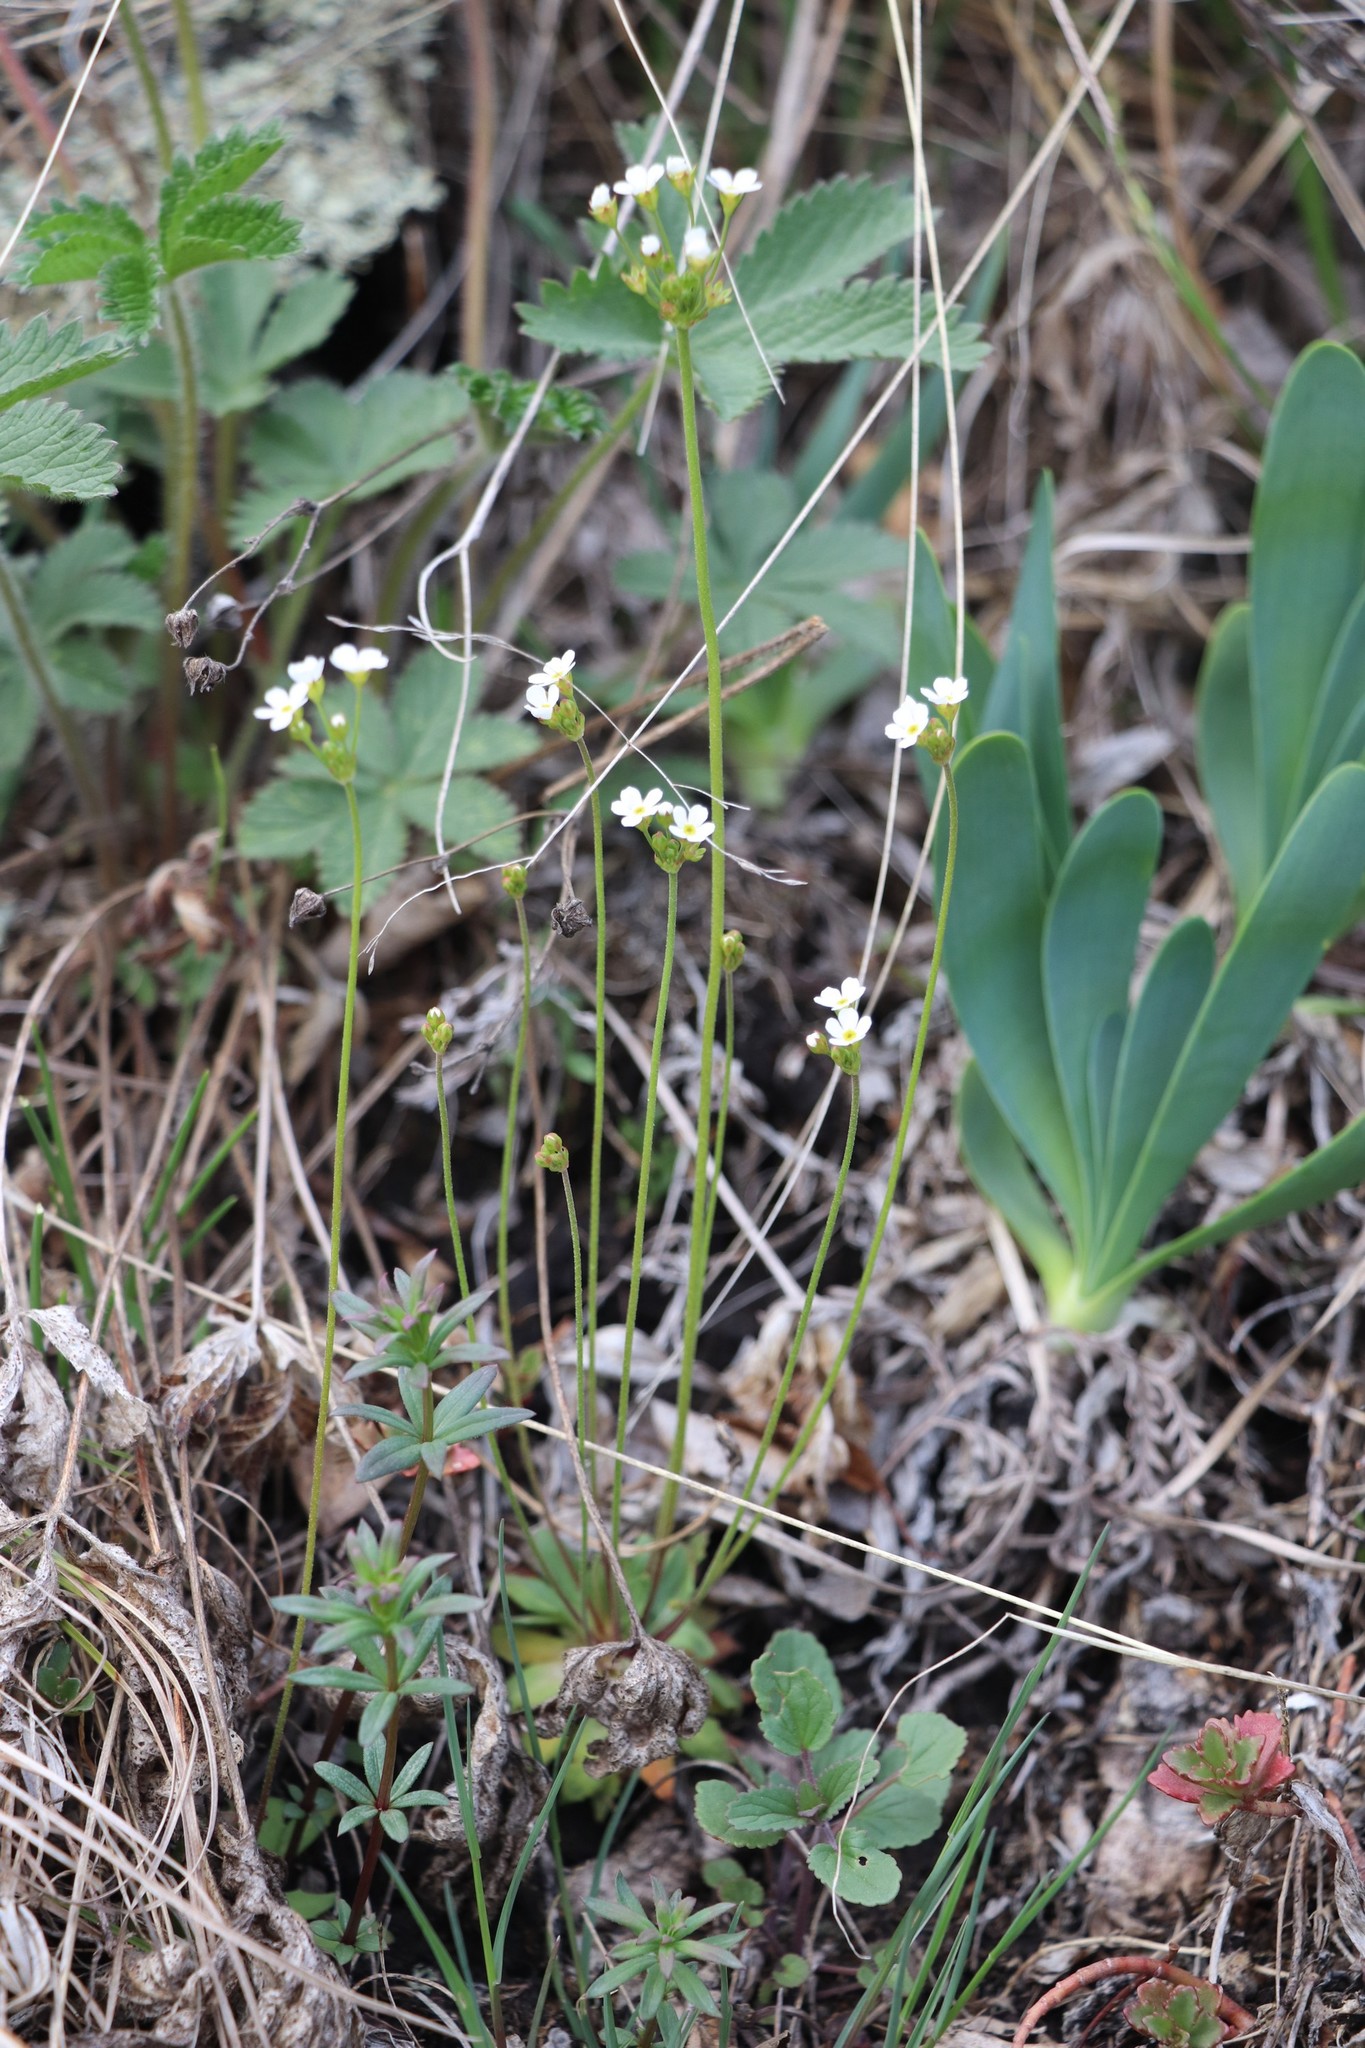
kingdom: Plantae
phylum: Tracheophyta
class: Magnoliopsida
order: Ericales
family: Primulaceae
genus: Androsace
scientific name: Androsace septentrionalis
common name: Hairy northern fairy-candelabra
